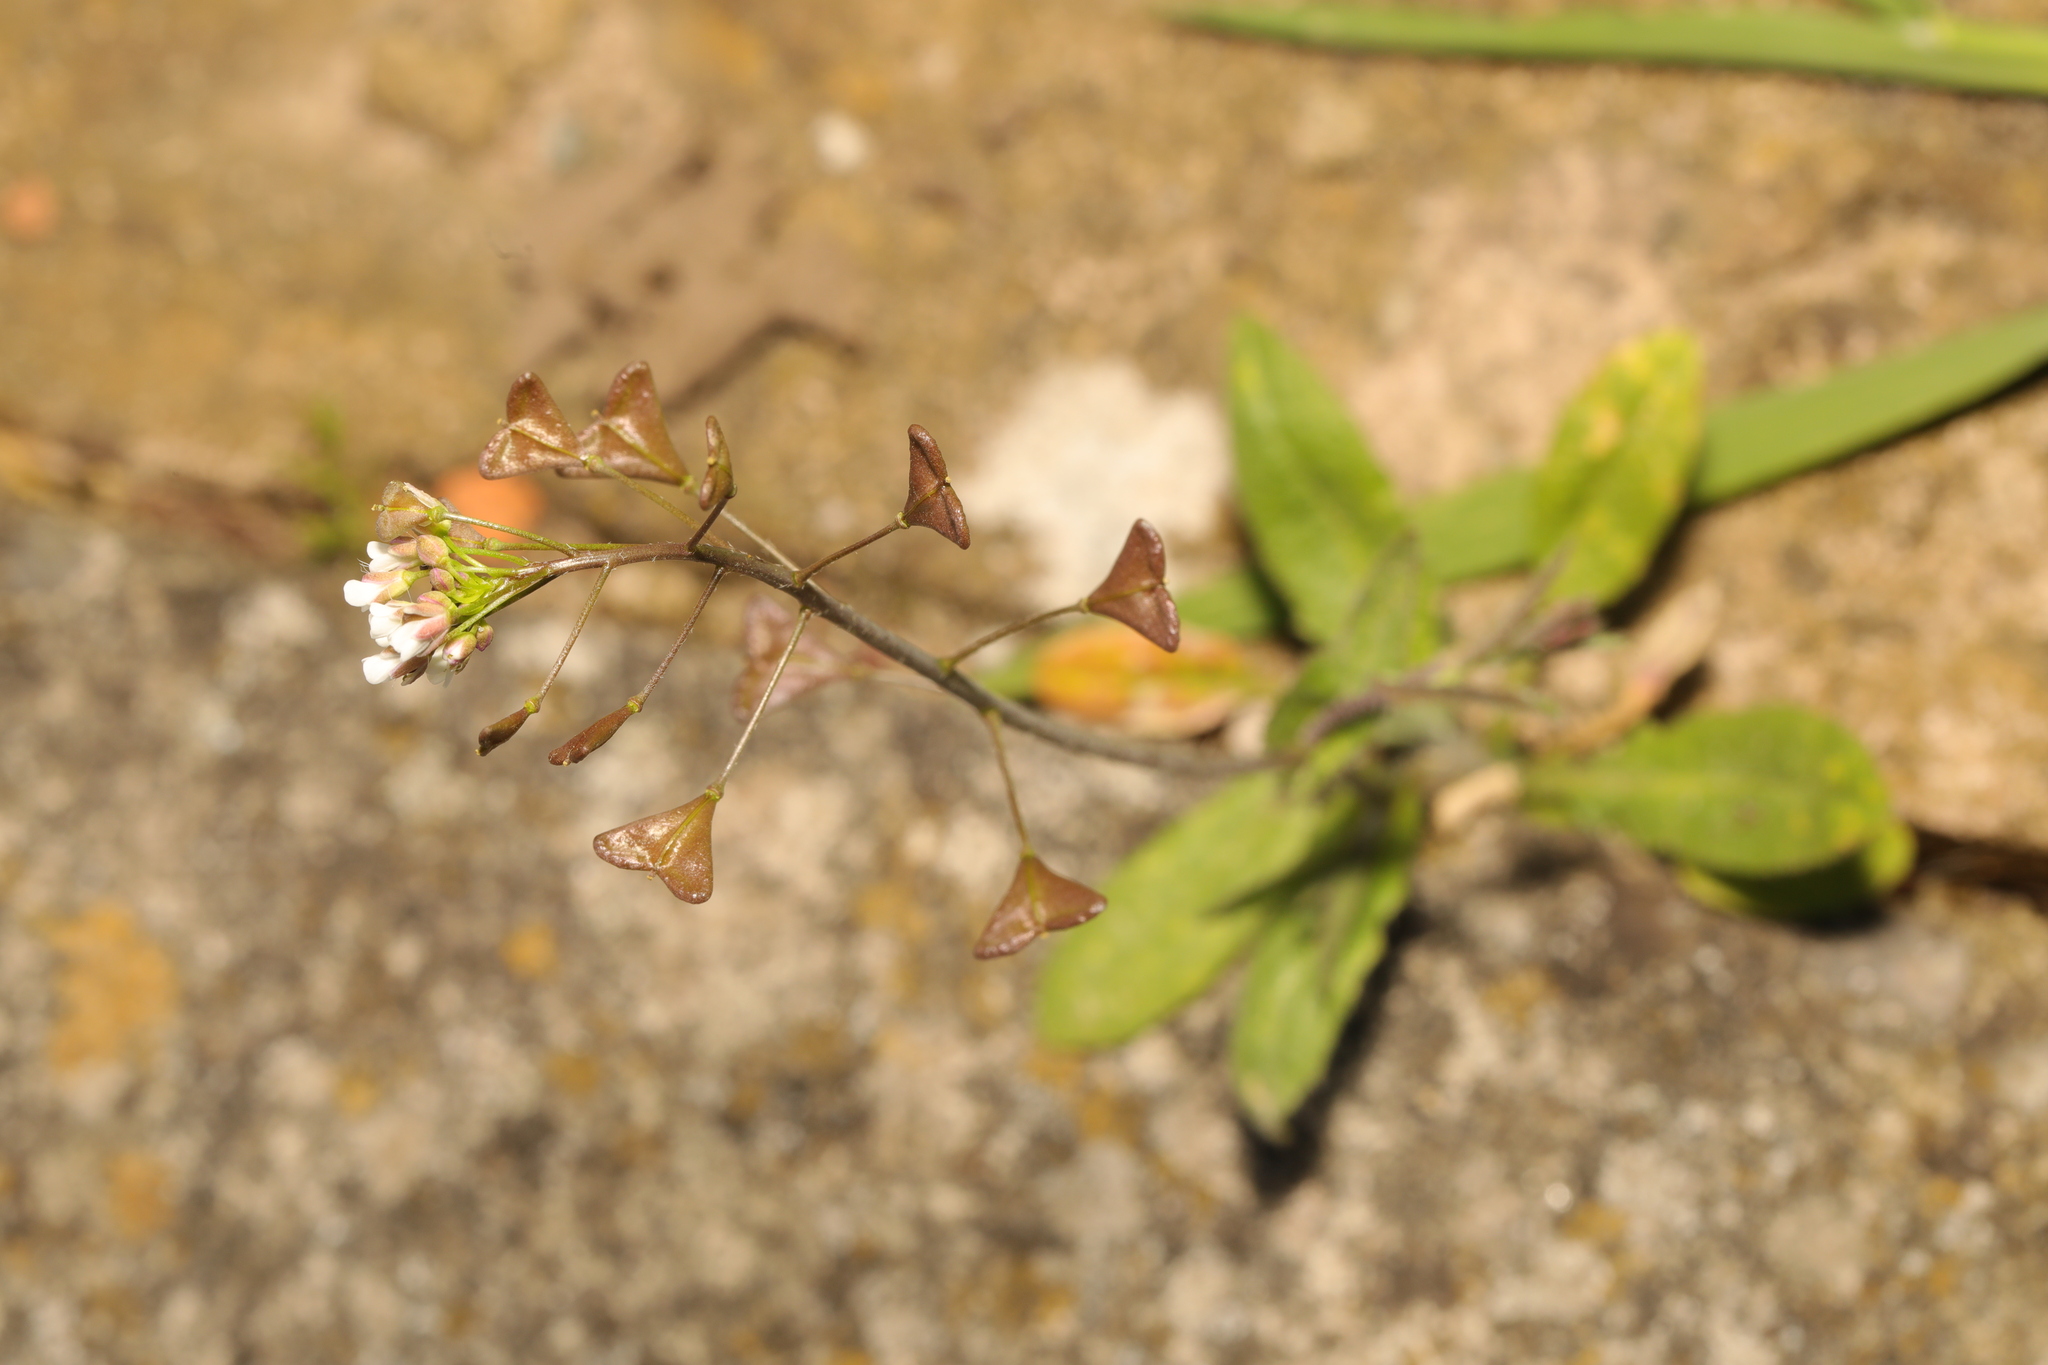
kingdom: Plantae
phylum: Tracheophyta
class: Magnoliopsida
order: Brassicales
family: Brassicaceae
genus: Capsella
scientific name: Capsella bursa-pastoris
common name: Shepherd's purse
